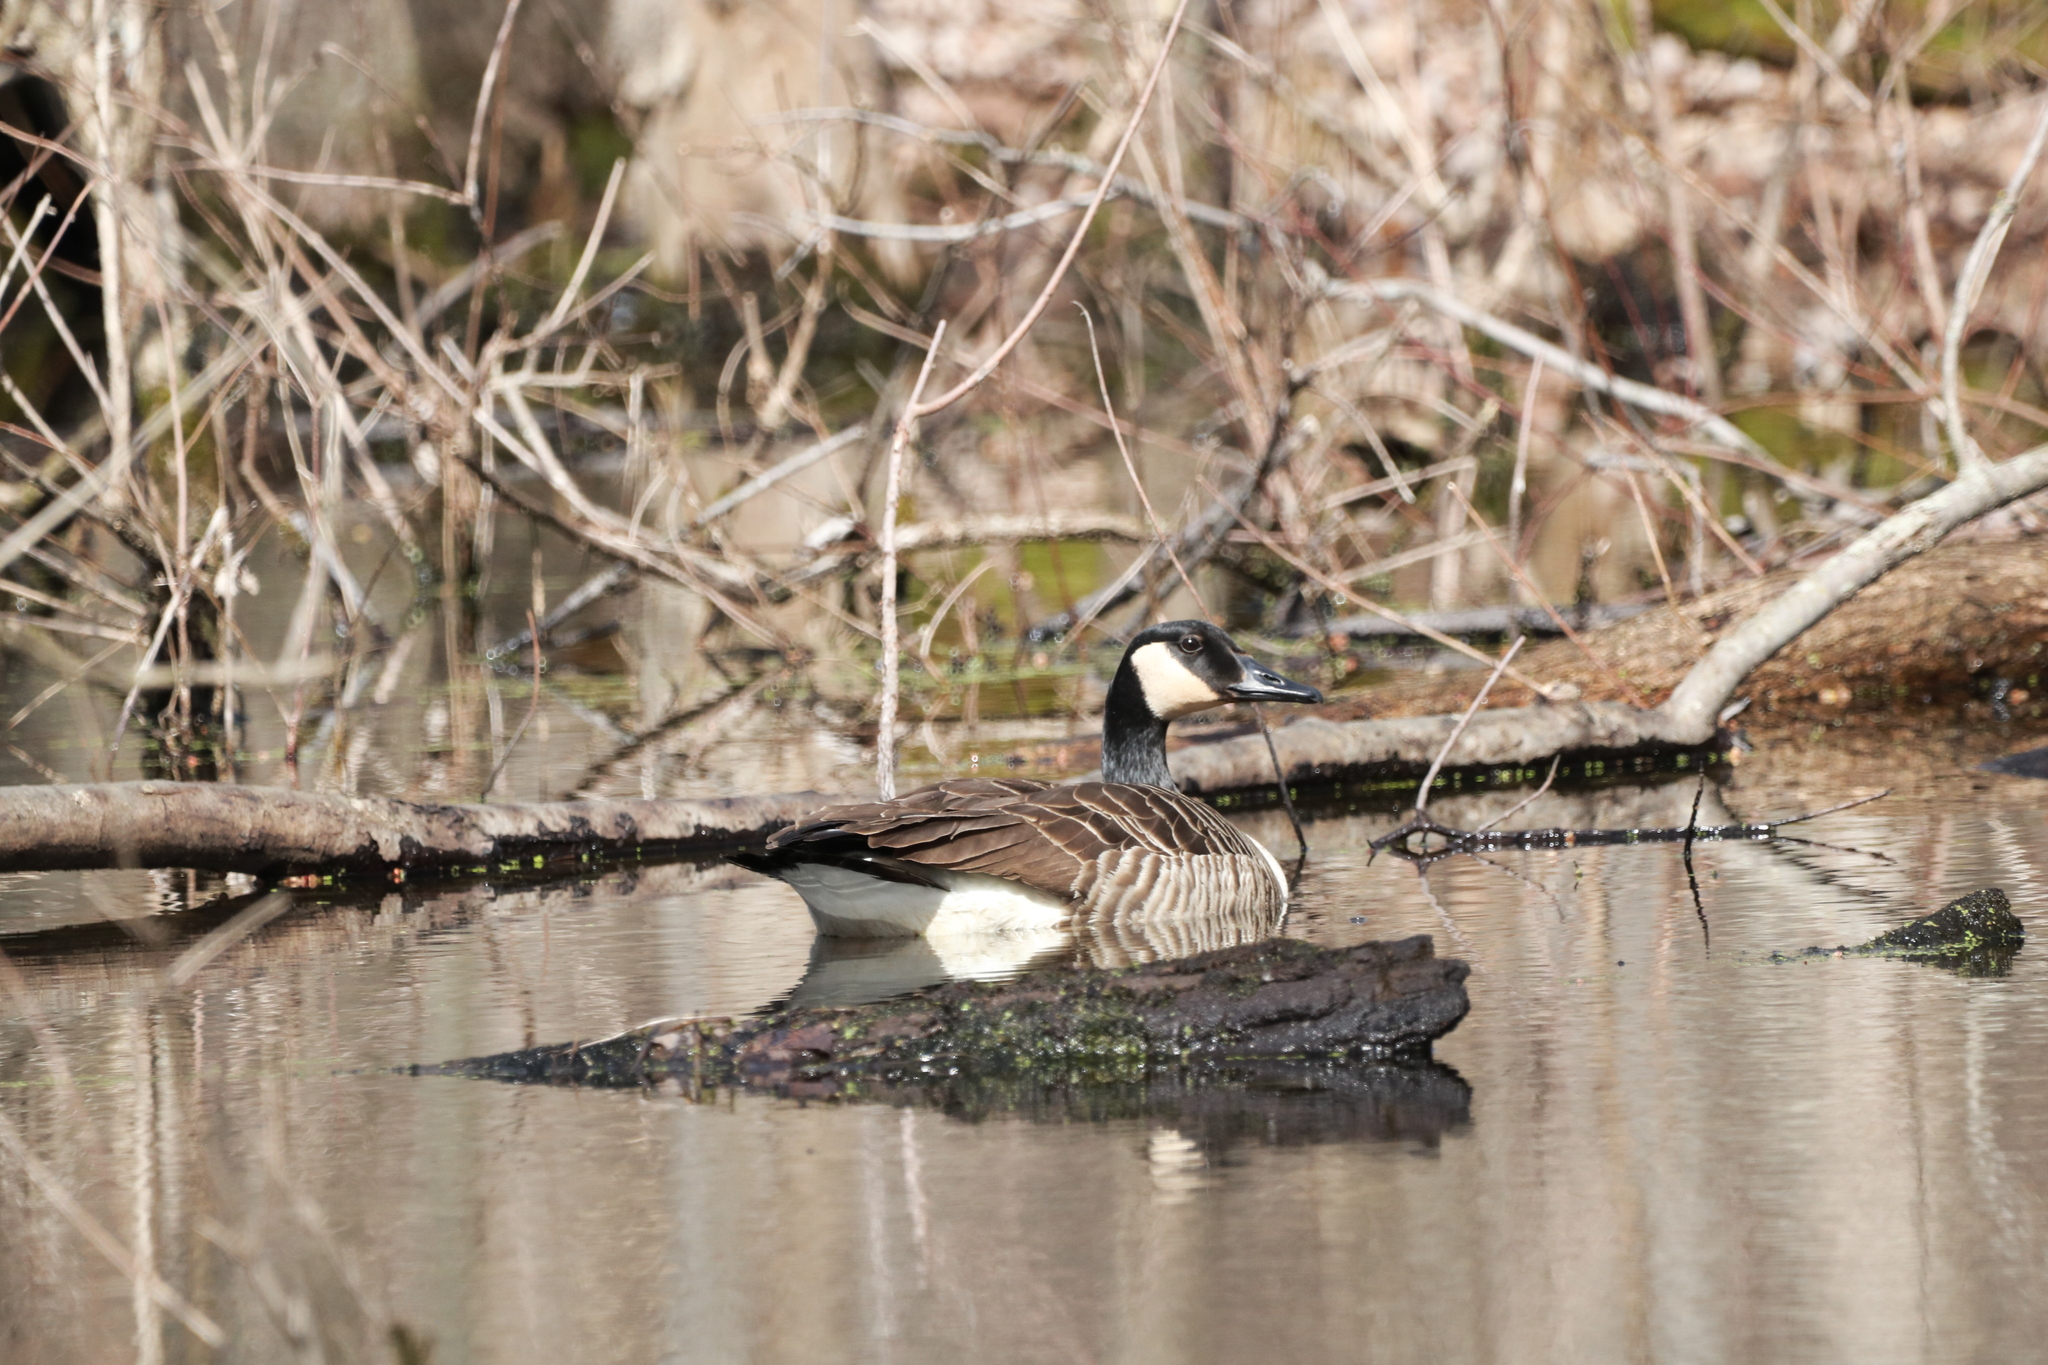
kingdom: Animalia
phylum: Chordata
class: Aves
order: Anseriformes
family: Anatidae
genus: Branta
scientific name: Branta canadensis
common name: Canada goose
